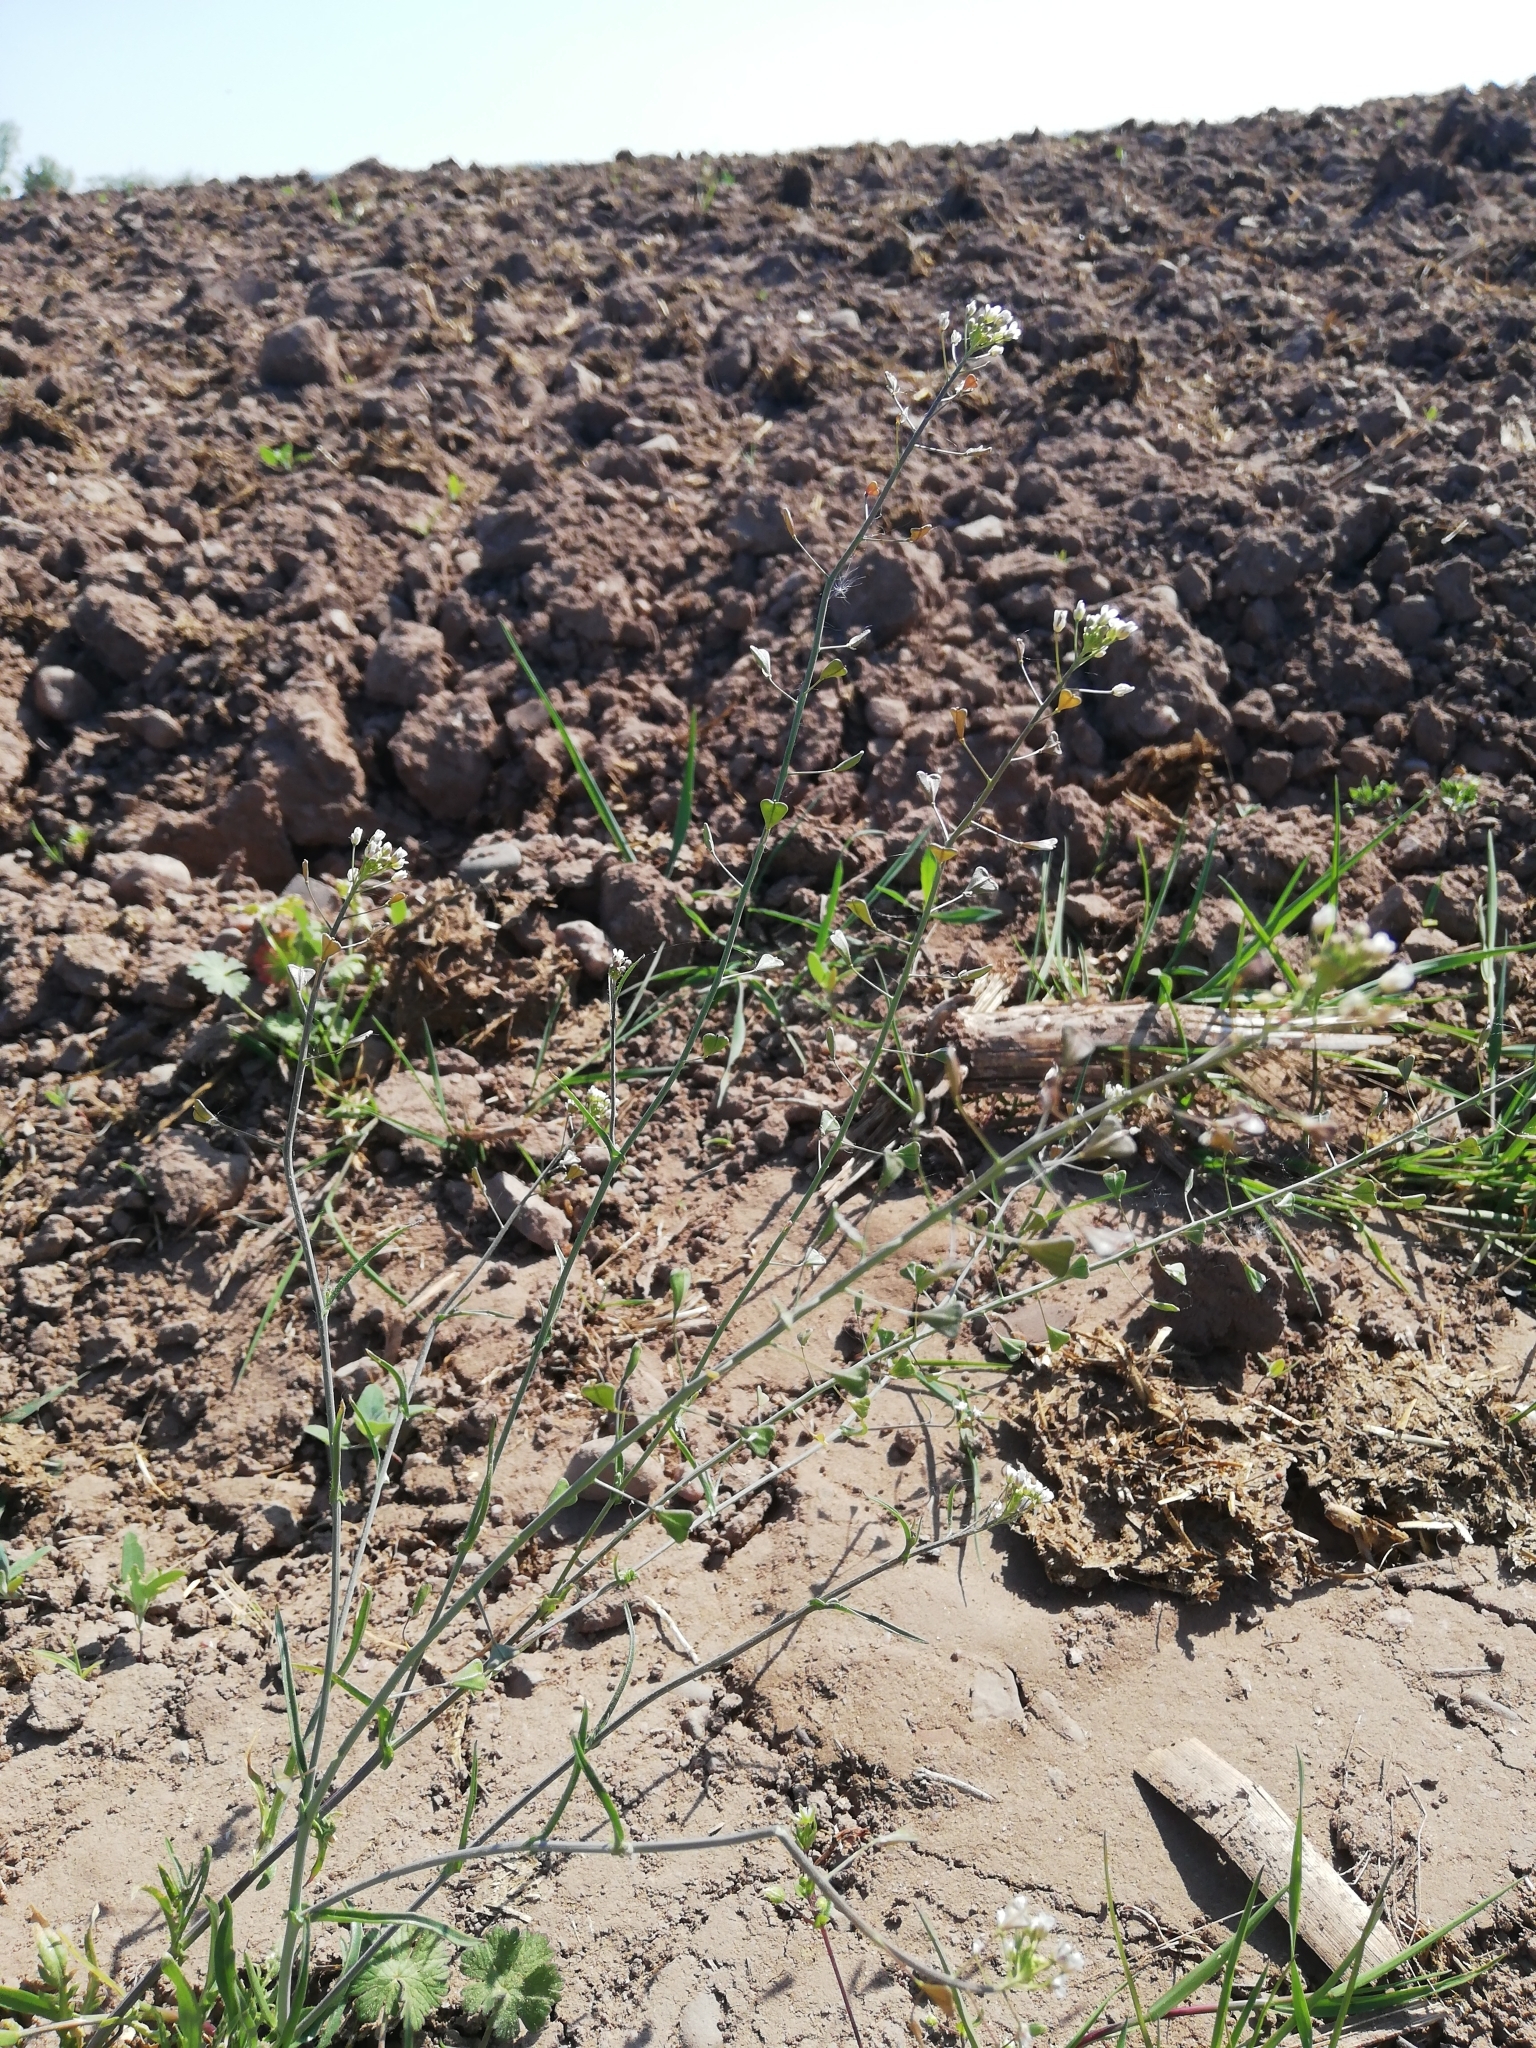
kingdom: Plantae
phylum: Tracheophyta
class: Magnoliopsida
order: Brassicales
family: Brassicaceae
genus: Capsella
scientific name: Capsella bursa-pastoris
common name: Shepherd's purse
